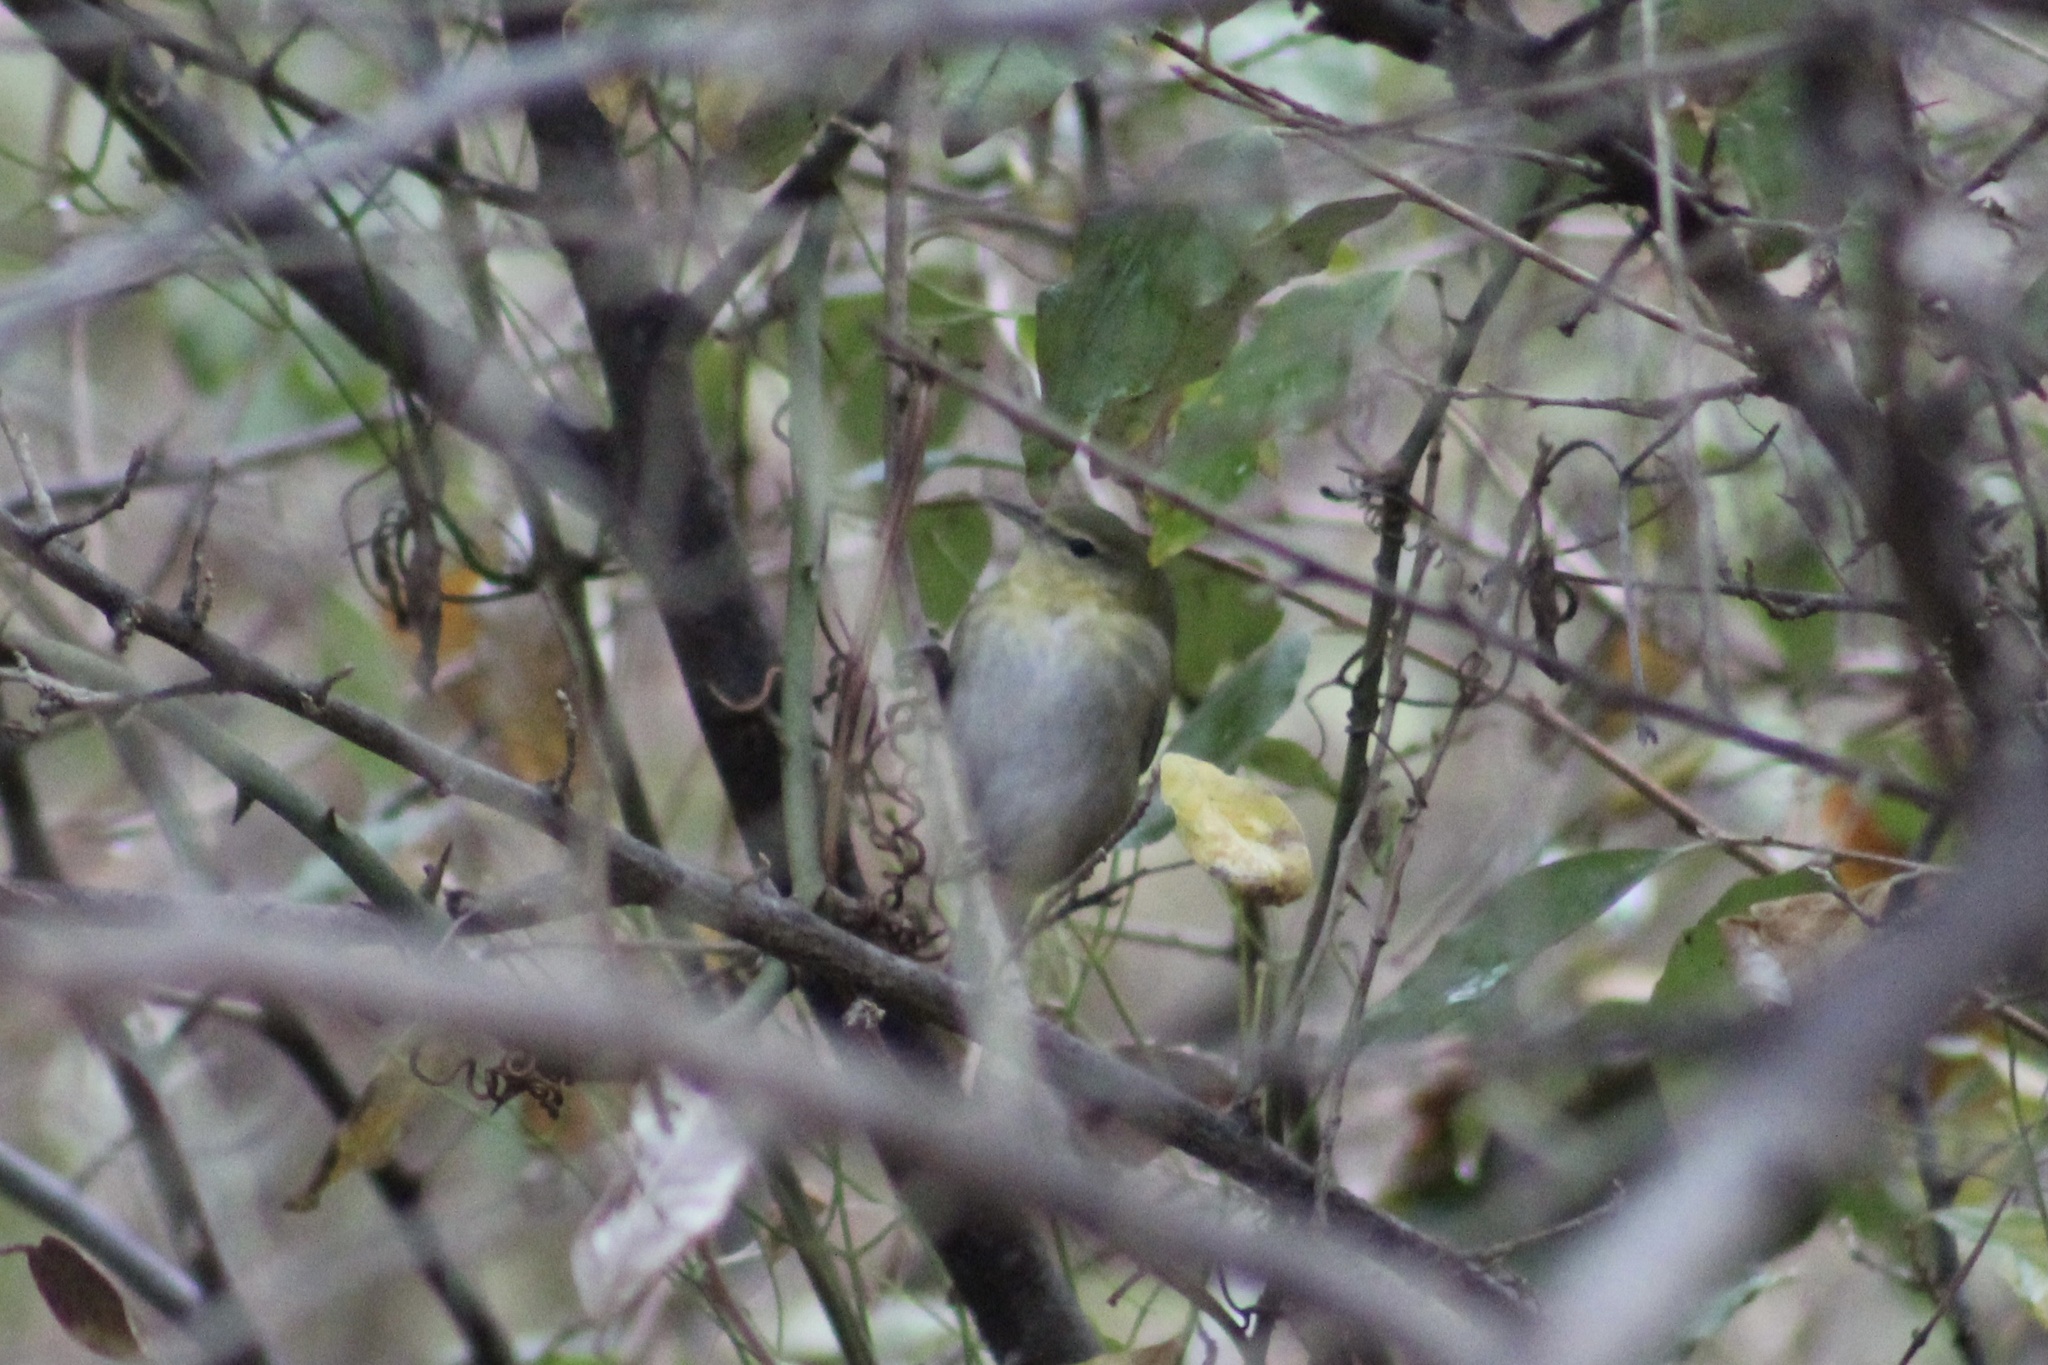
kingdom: Animalia
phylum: Chordata
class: Aves
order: Passeriformes
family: Parulidae
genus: Leiothlypis
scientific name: Leiothlypis peregrina
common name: Tennessee warbler
